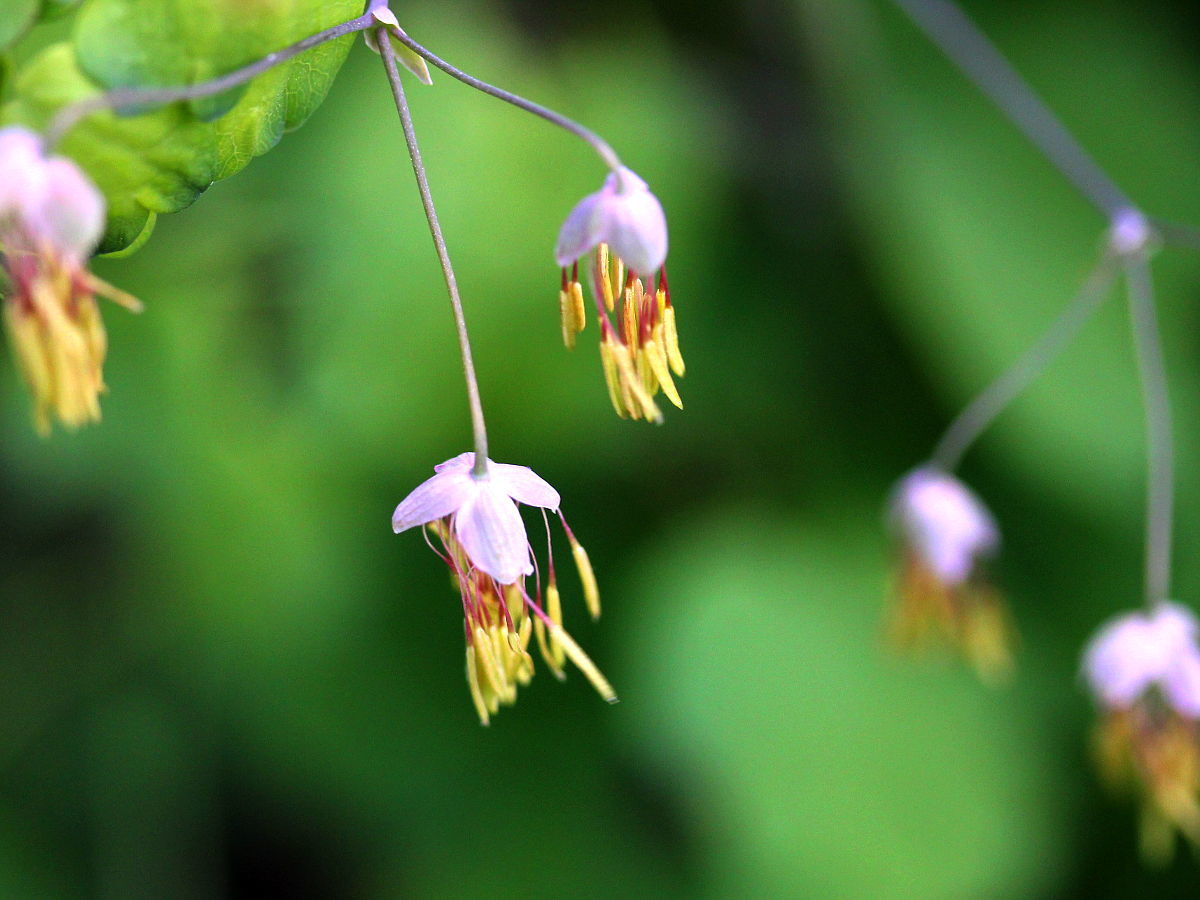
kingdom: Plantae
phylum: Tracheophyta
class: Magnoliopsida
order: Ranunculales
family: Ranunculaceae
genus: Thalictrum
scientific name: Thalictrum dioicum
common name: Early meadow-rue
